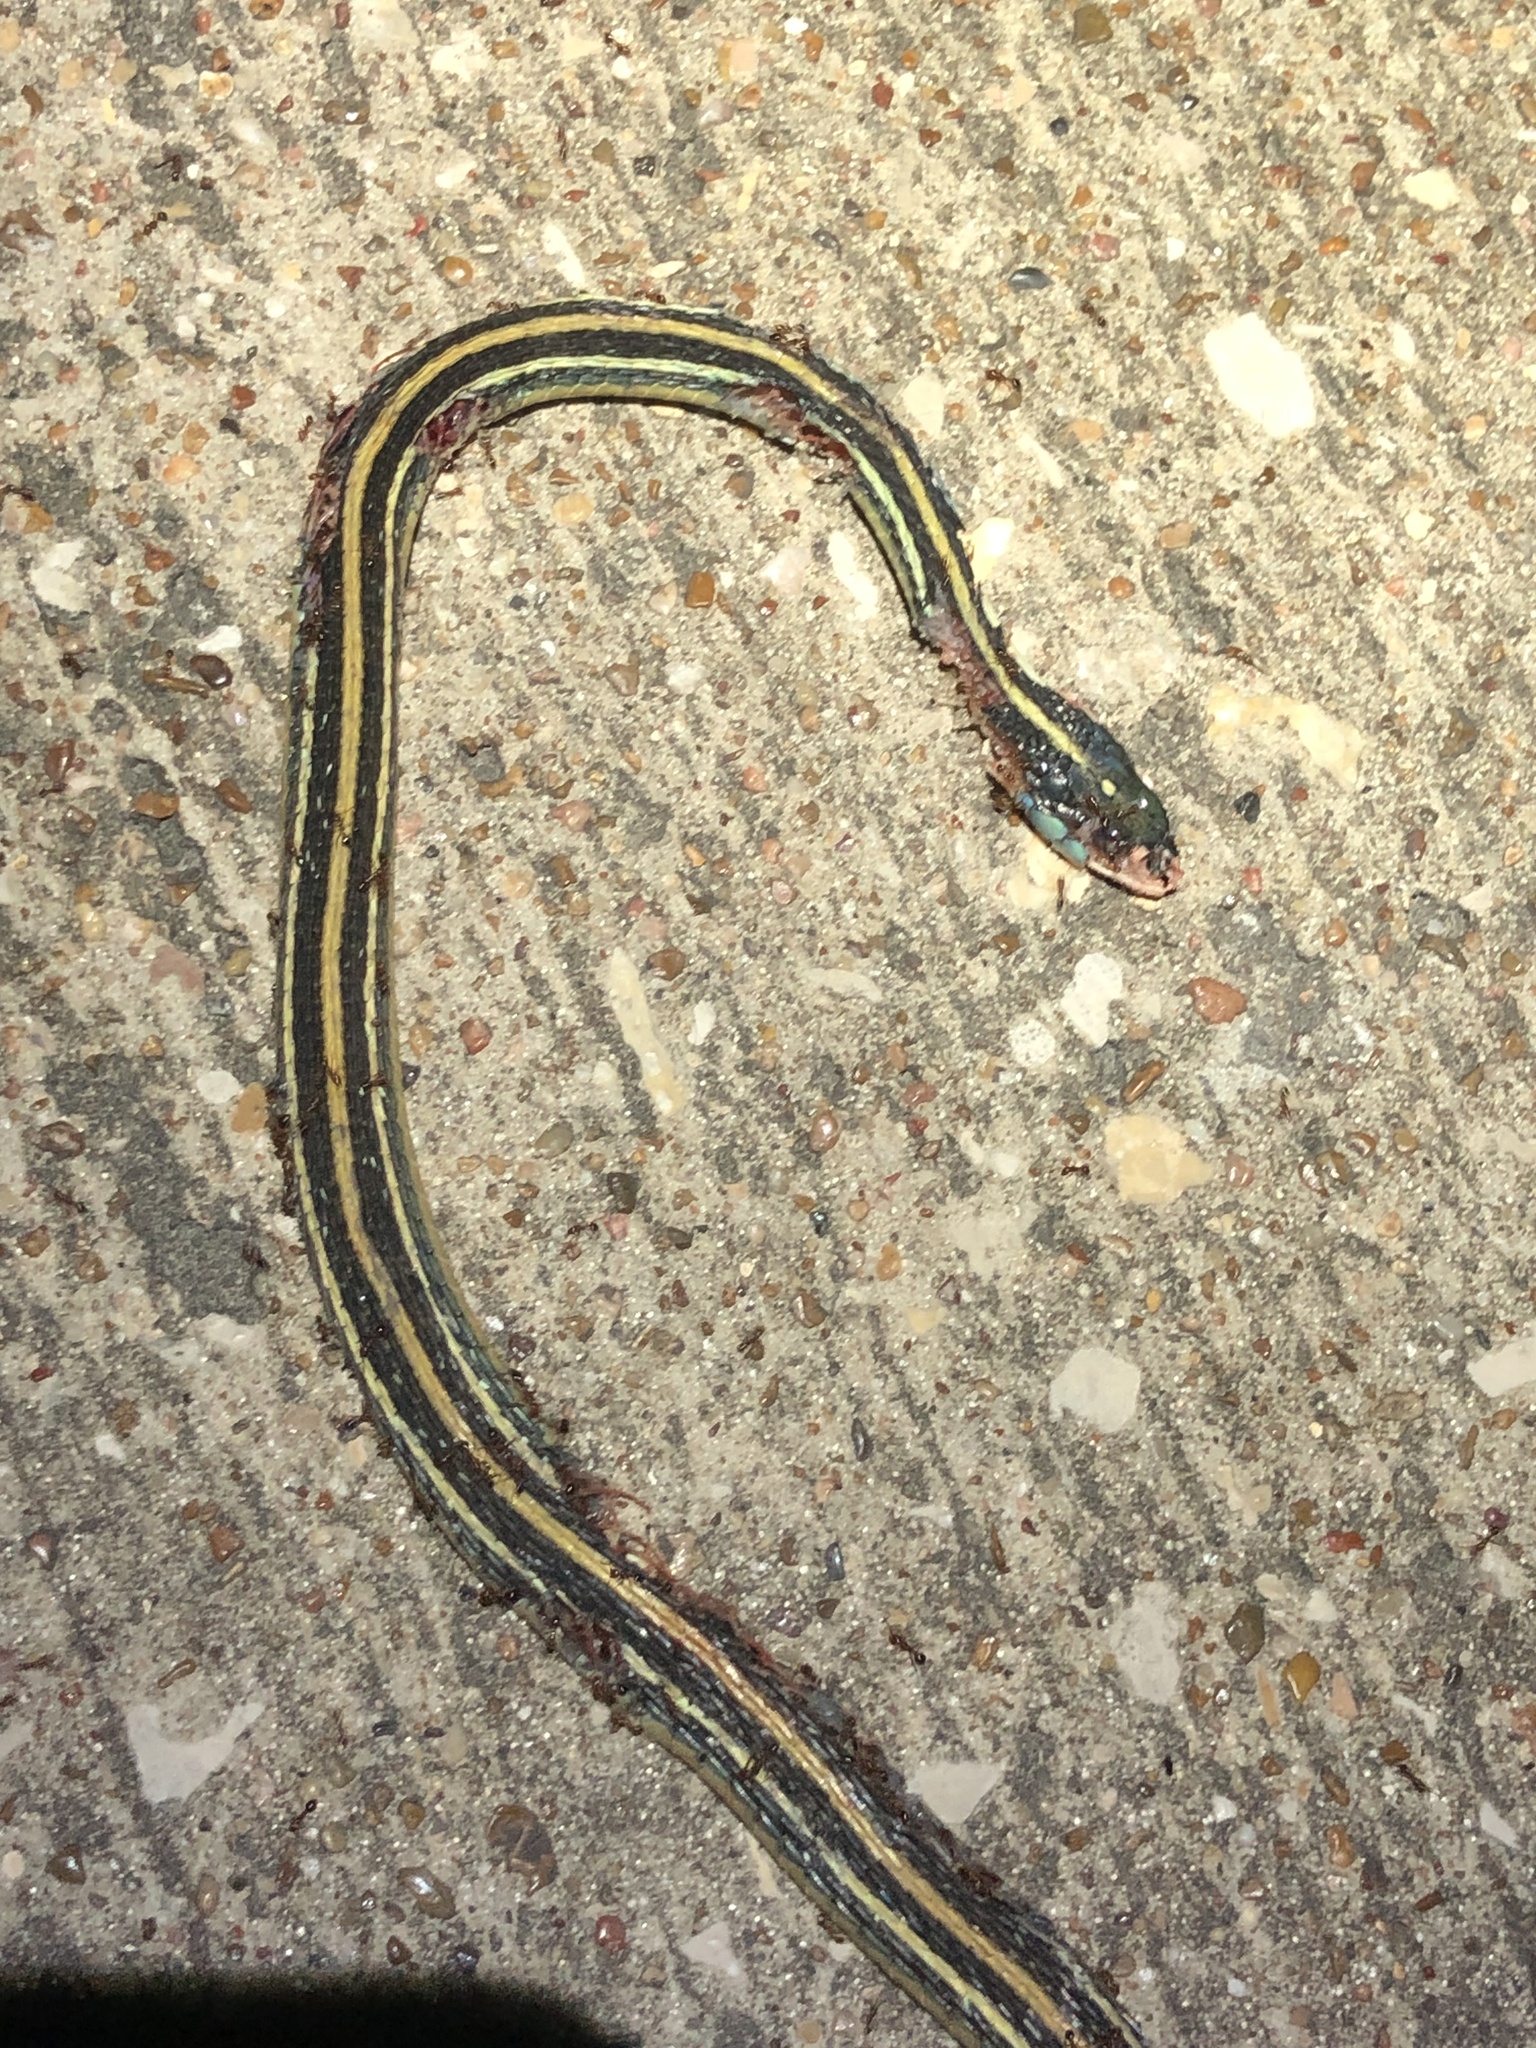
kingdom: Animalia
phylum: Chordata
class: Squamata
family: Colubridae
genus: Thamnophis
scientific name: Thamnophis proximus
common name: Western ribbon snake
